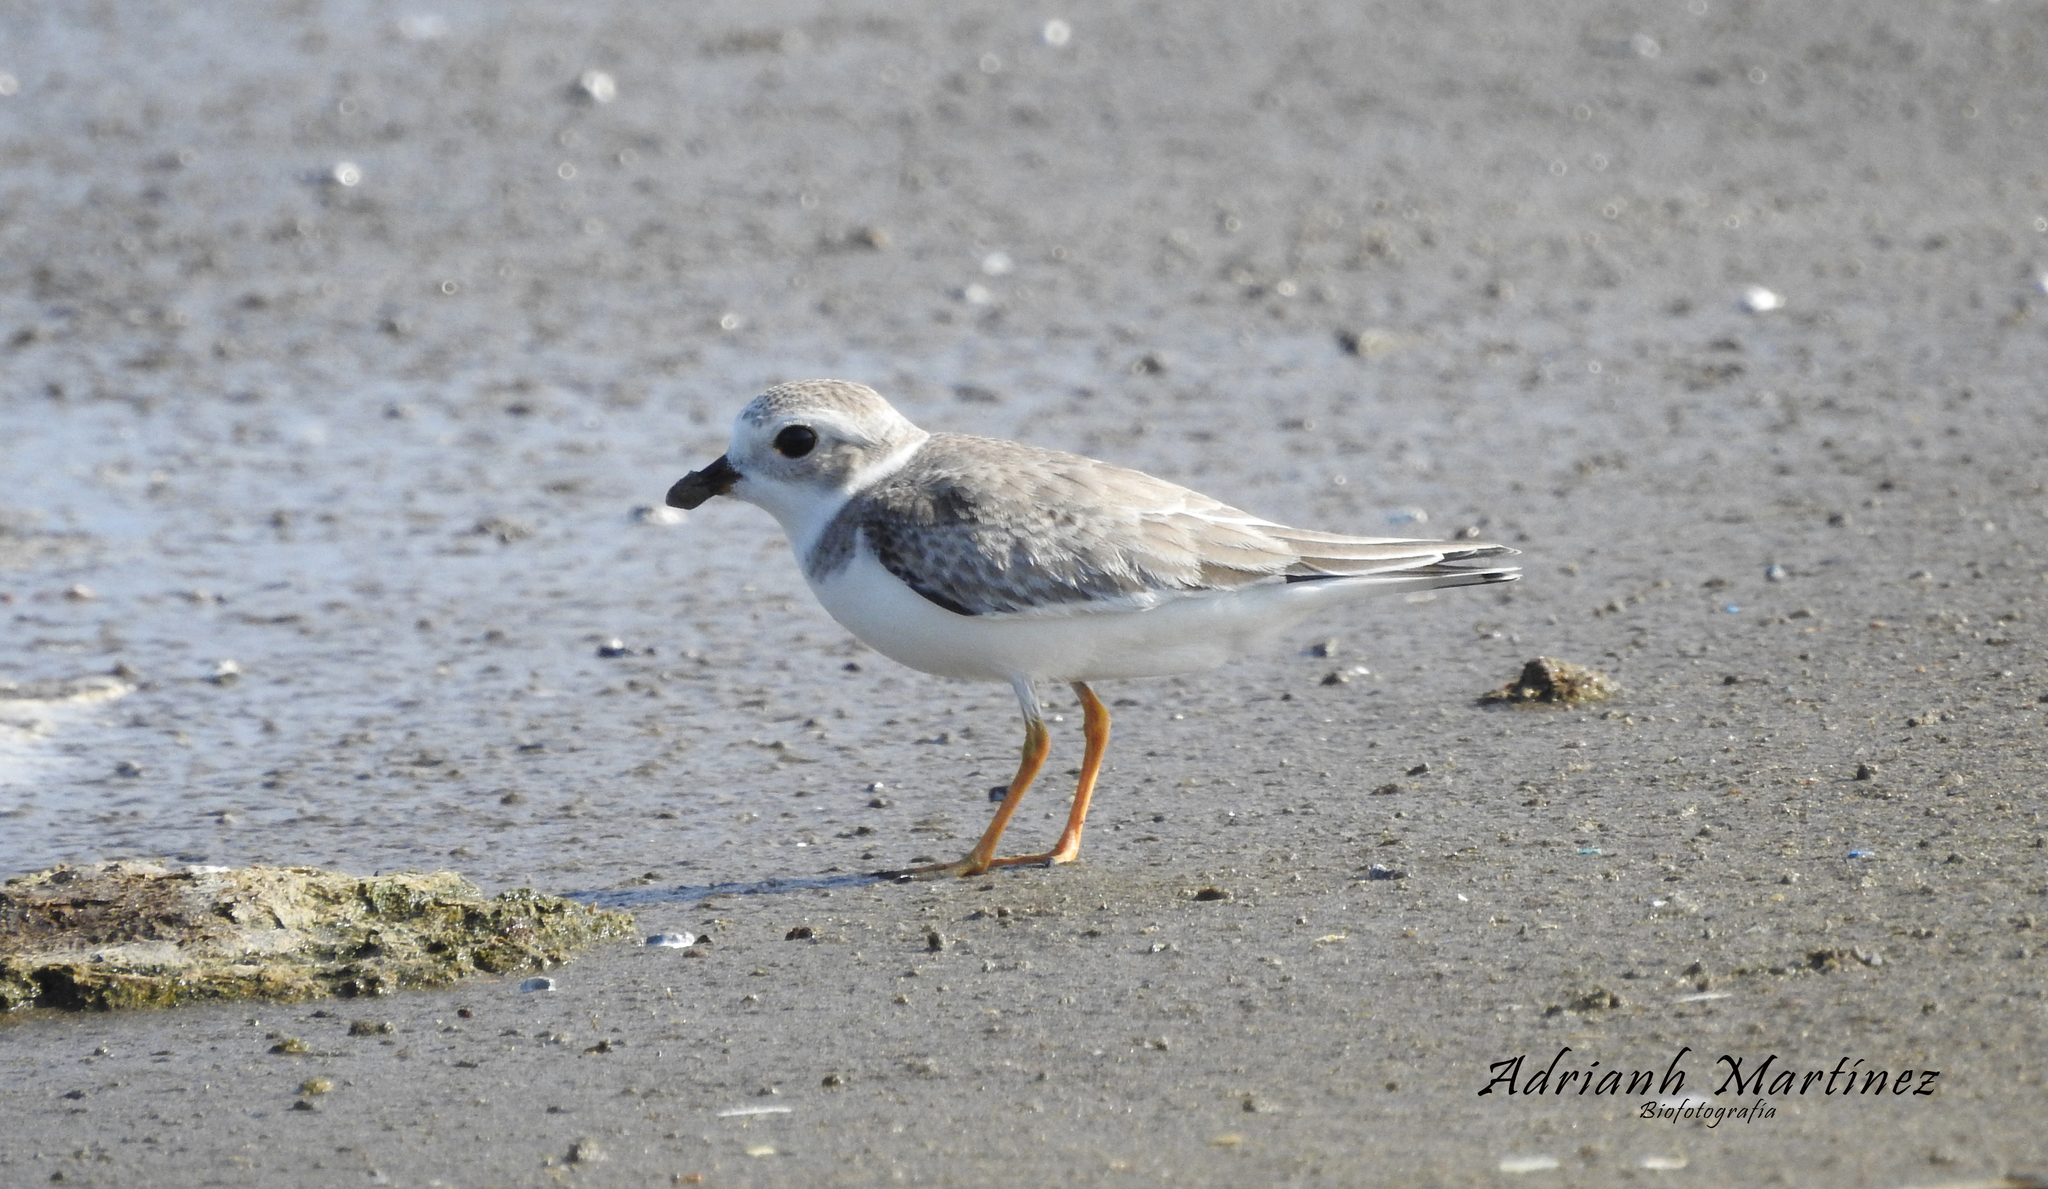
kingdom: Animalia
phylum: Chordata
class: Aves
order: Charadriiformes
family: Charadriidae
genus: Charadrius
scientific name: Charadrius melodus
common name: Piping plover
